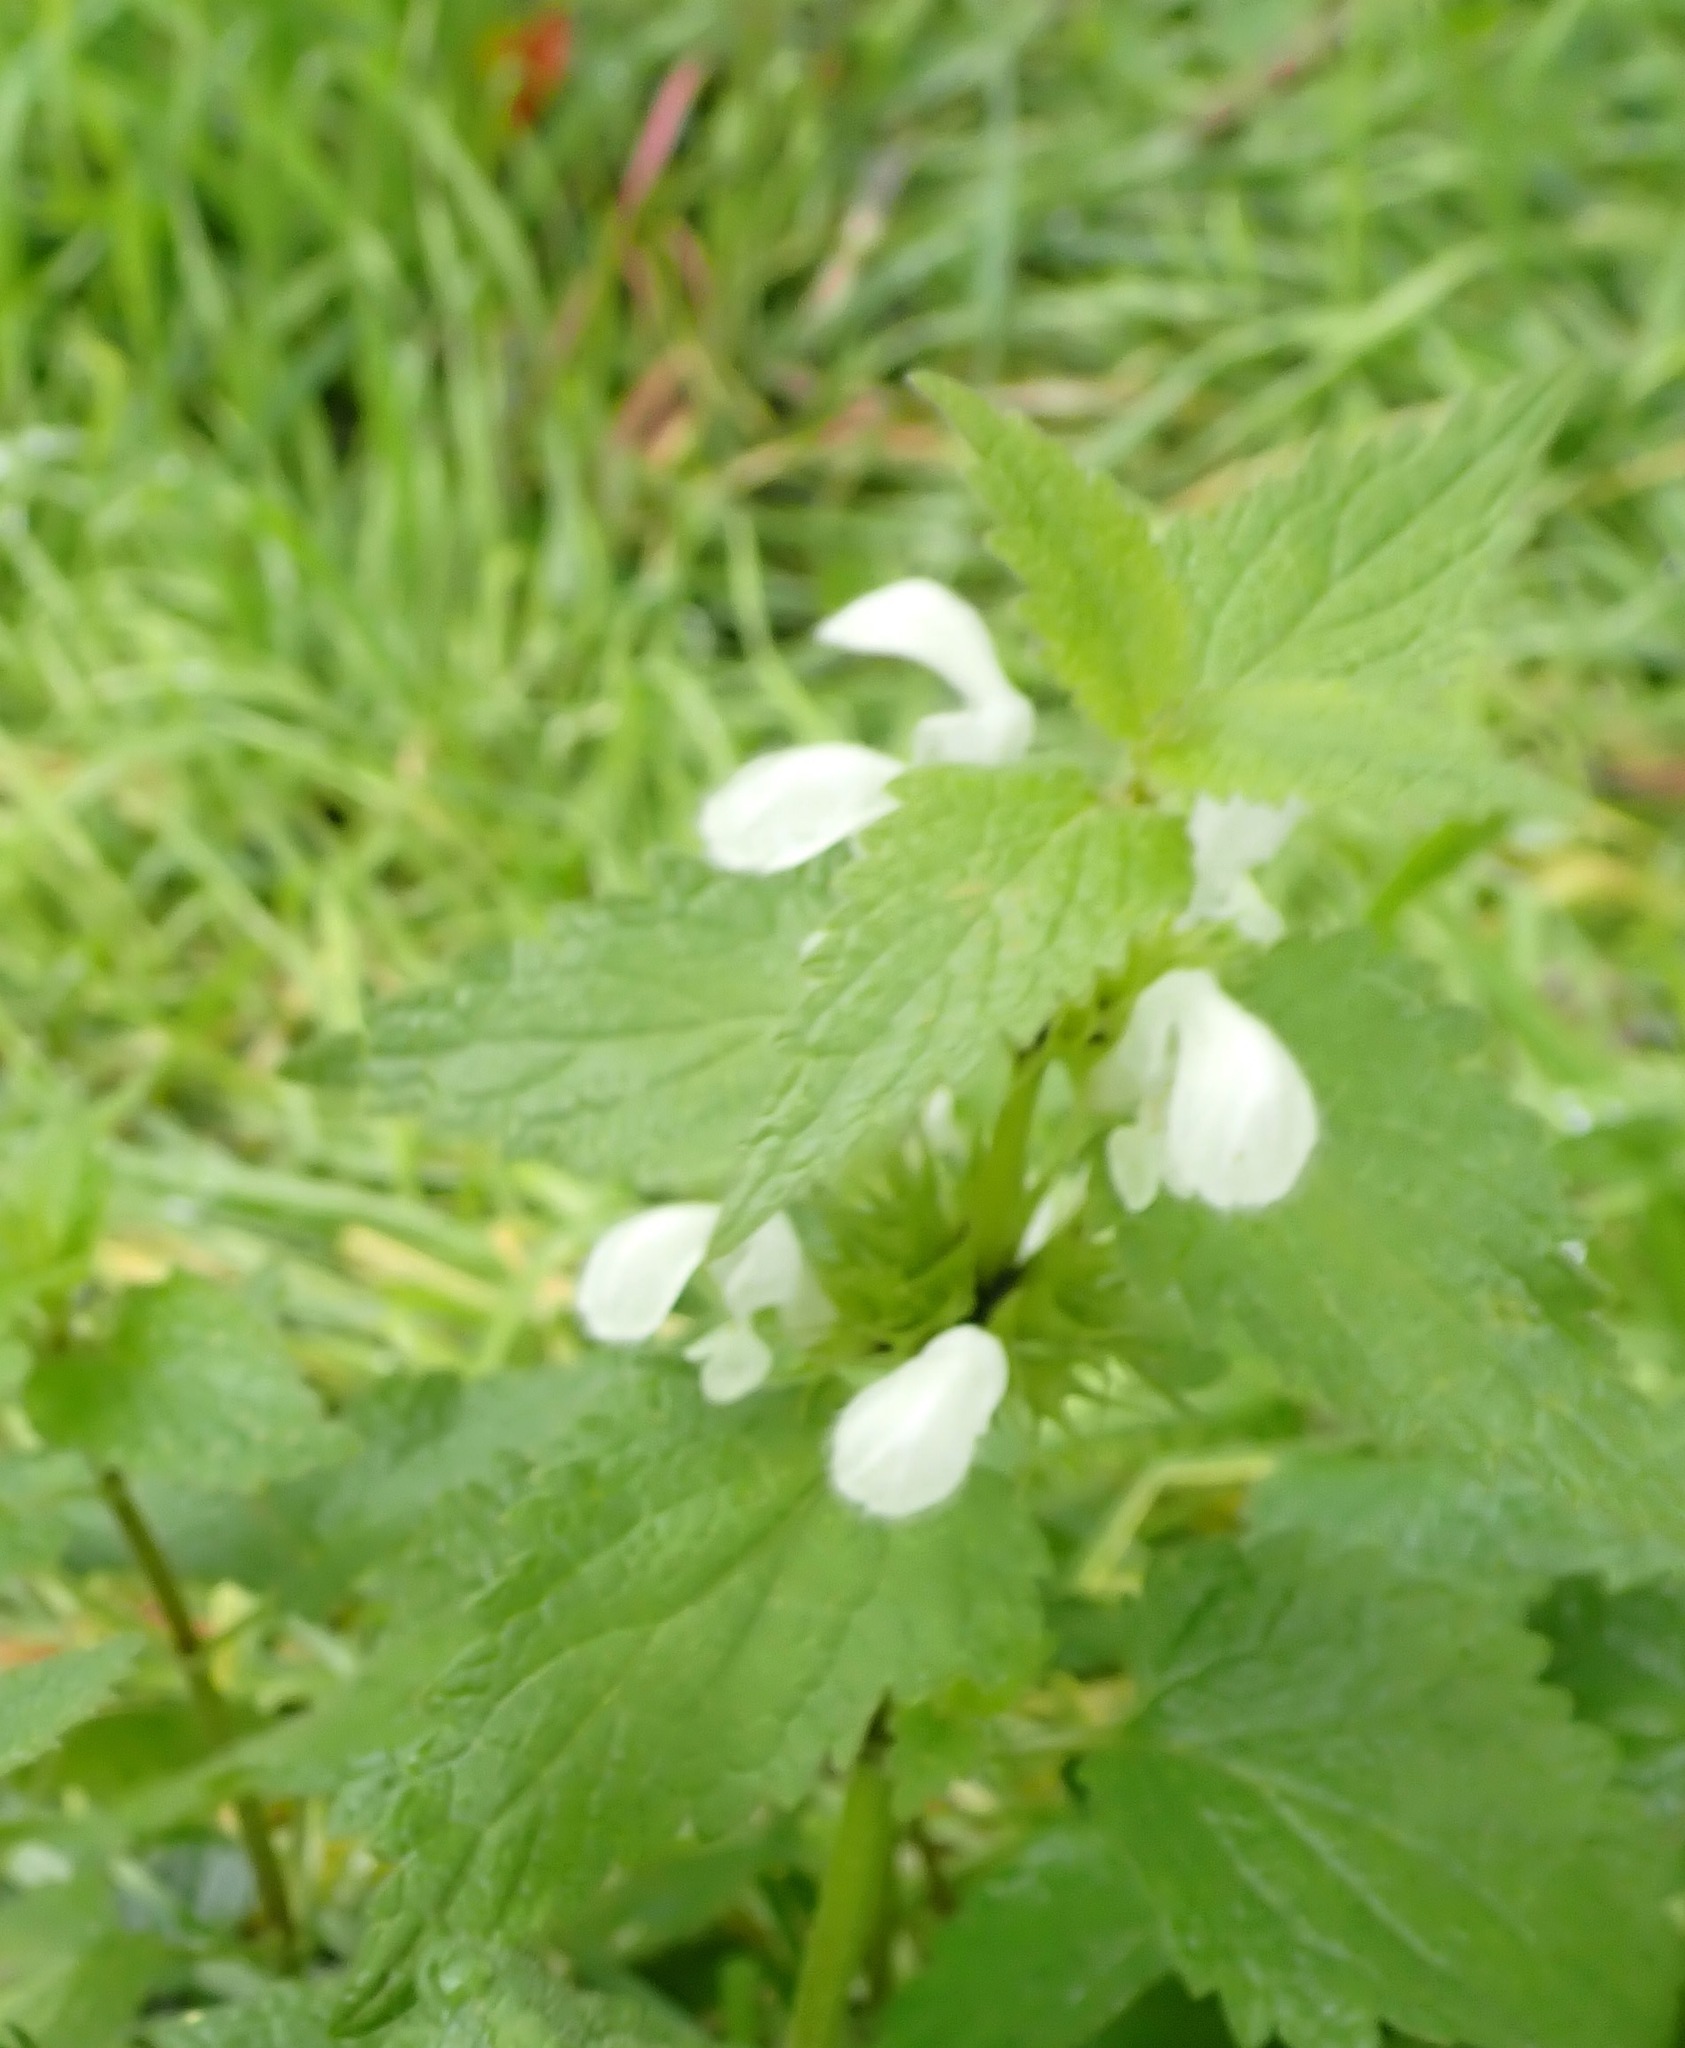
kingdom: Plantae
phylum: Tracheophyta
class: Magnoliopsida
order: Lamiales
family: Lamiaceae
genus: Lamium
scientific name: Lamium album
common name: White dead-nettle
